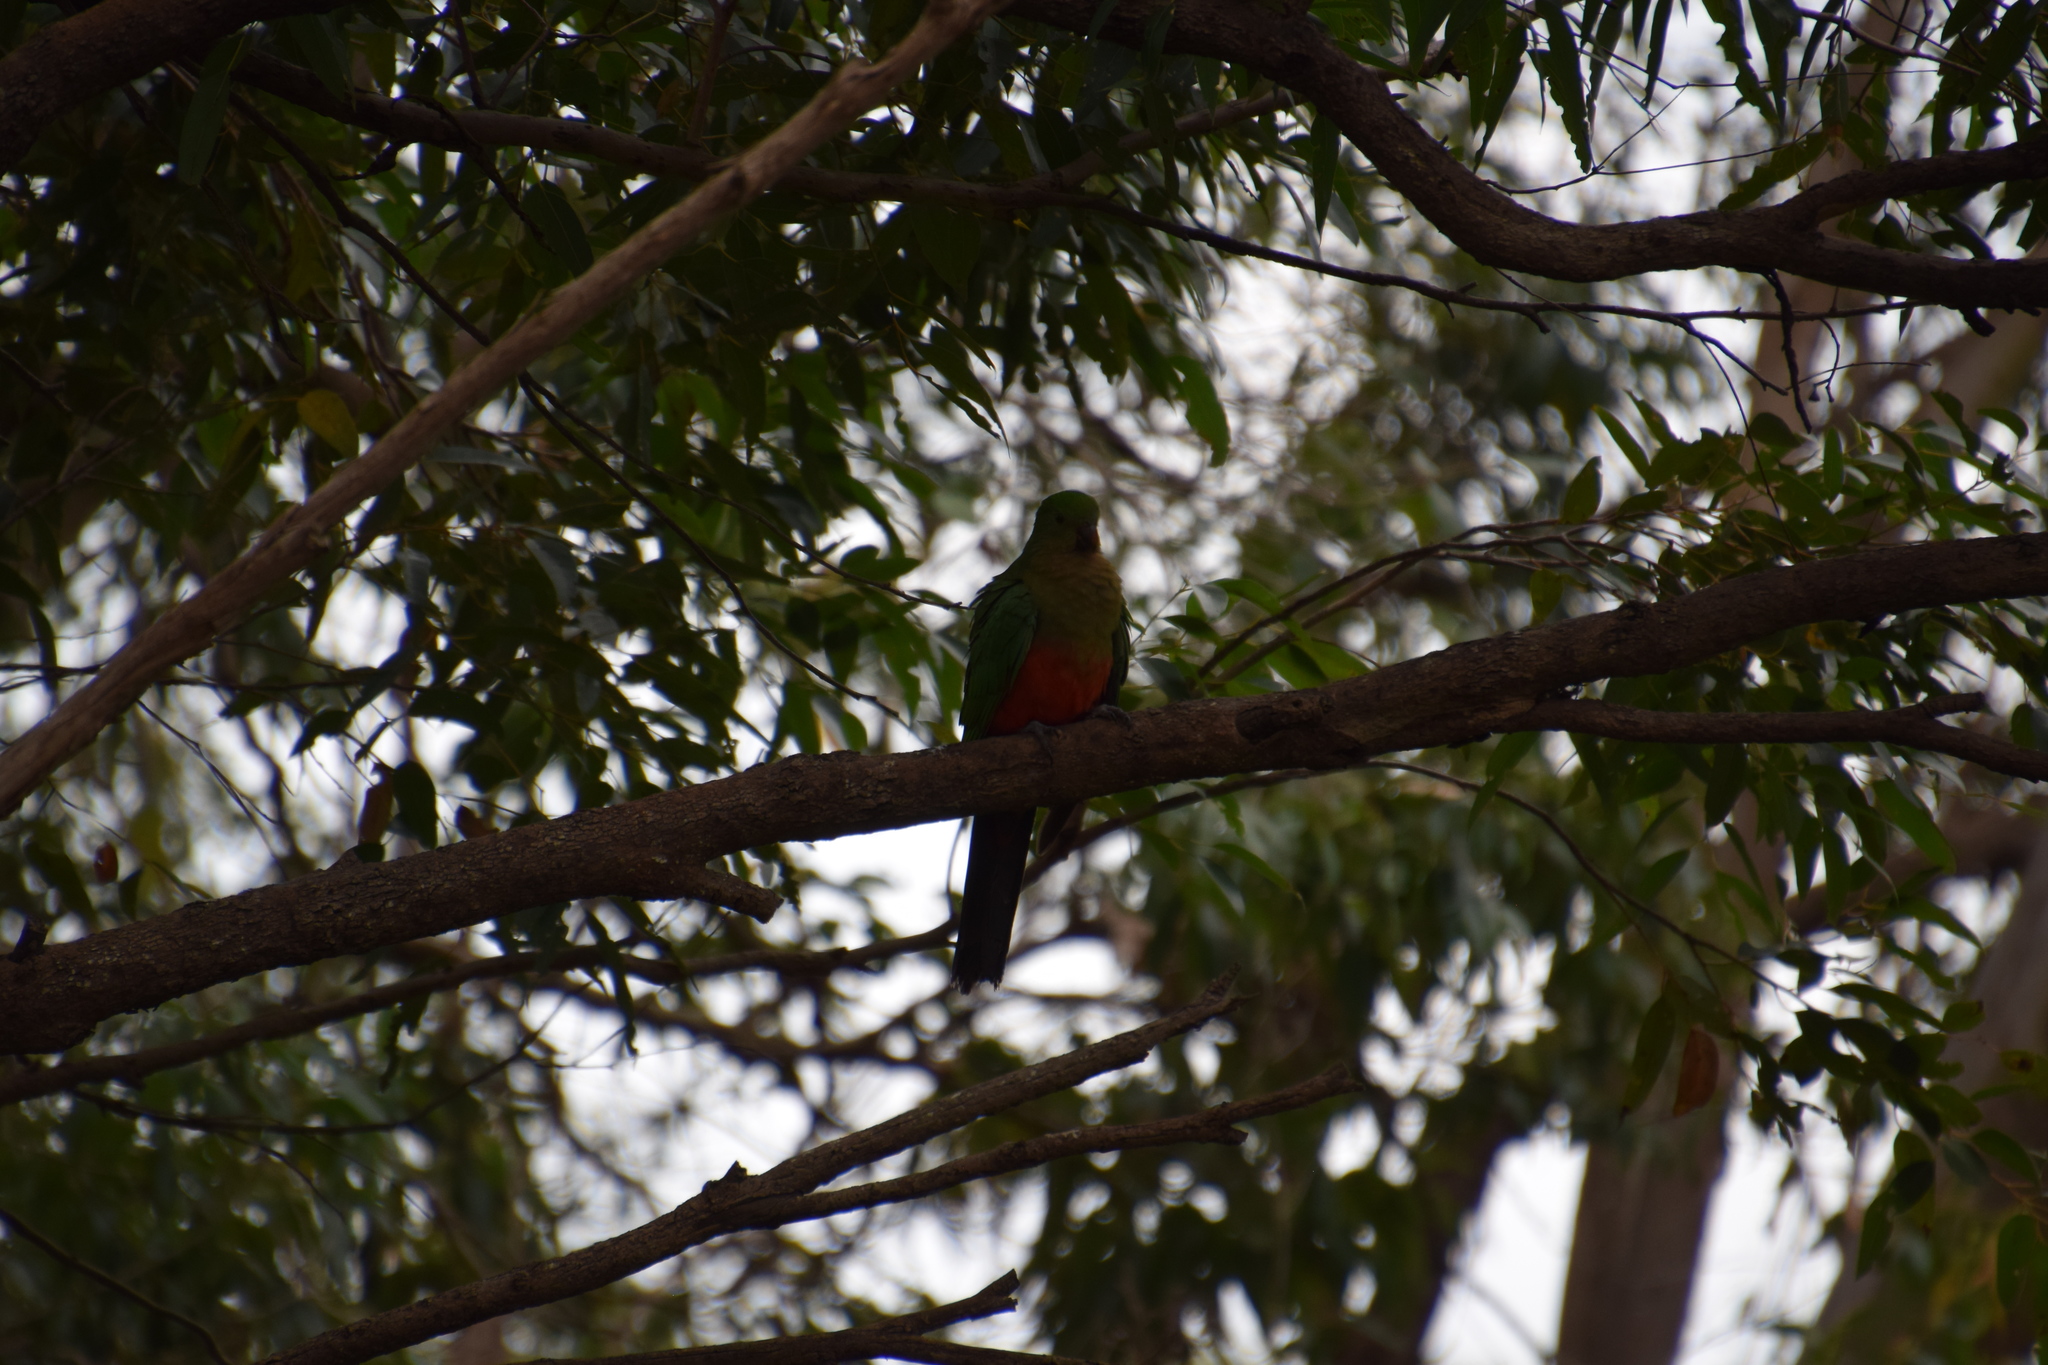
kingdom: Animalia
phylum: Chordata
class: Aves
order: Psittaciformes
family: Psittacidae
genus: Alisterus
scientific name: Alisterus scapularis
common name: Australian king parrot
